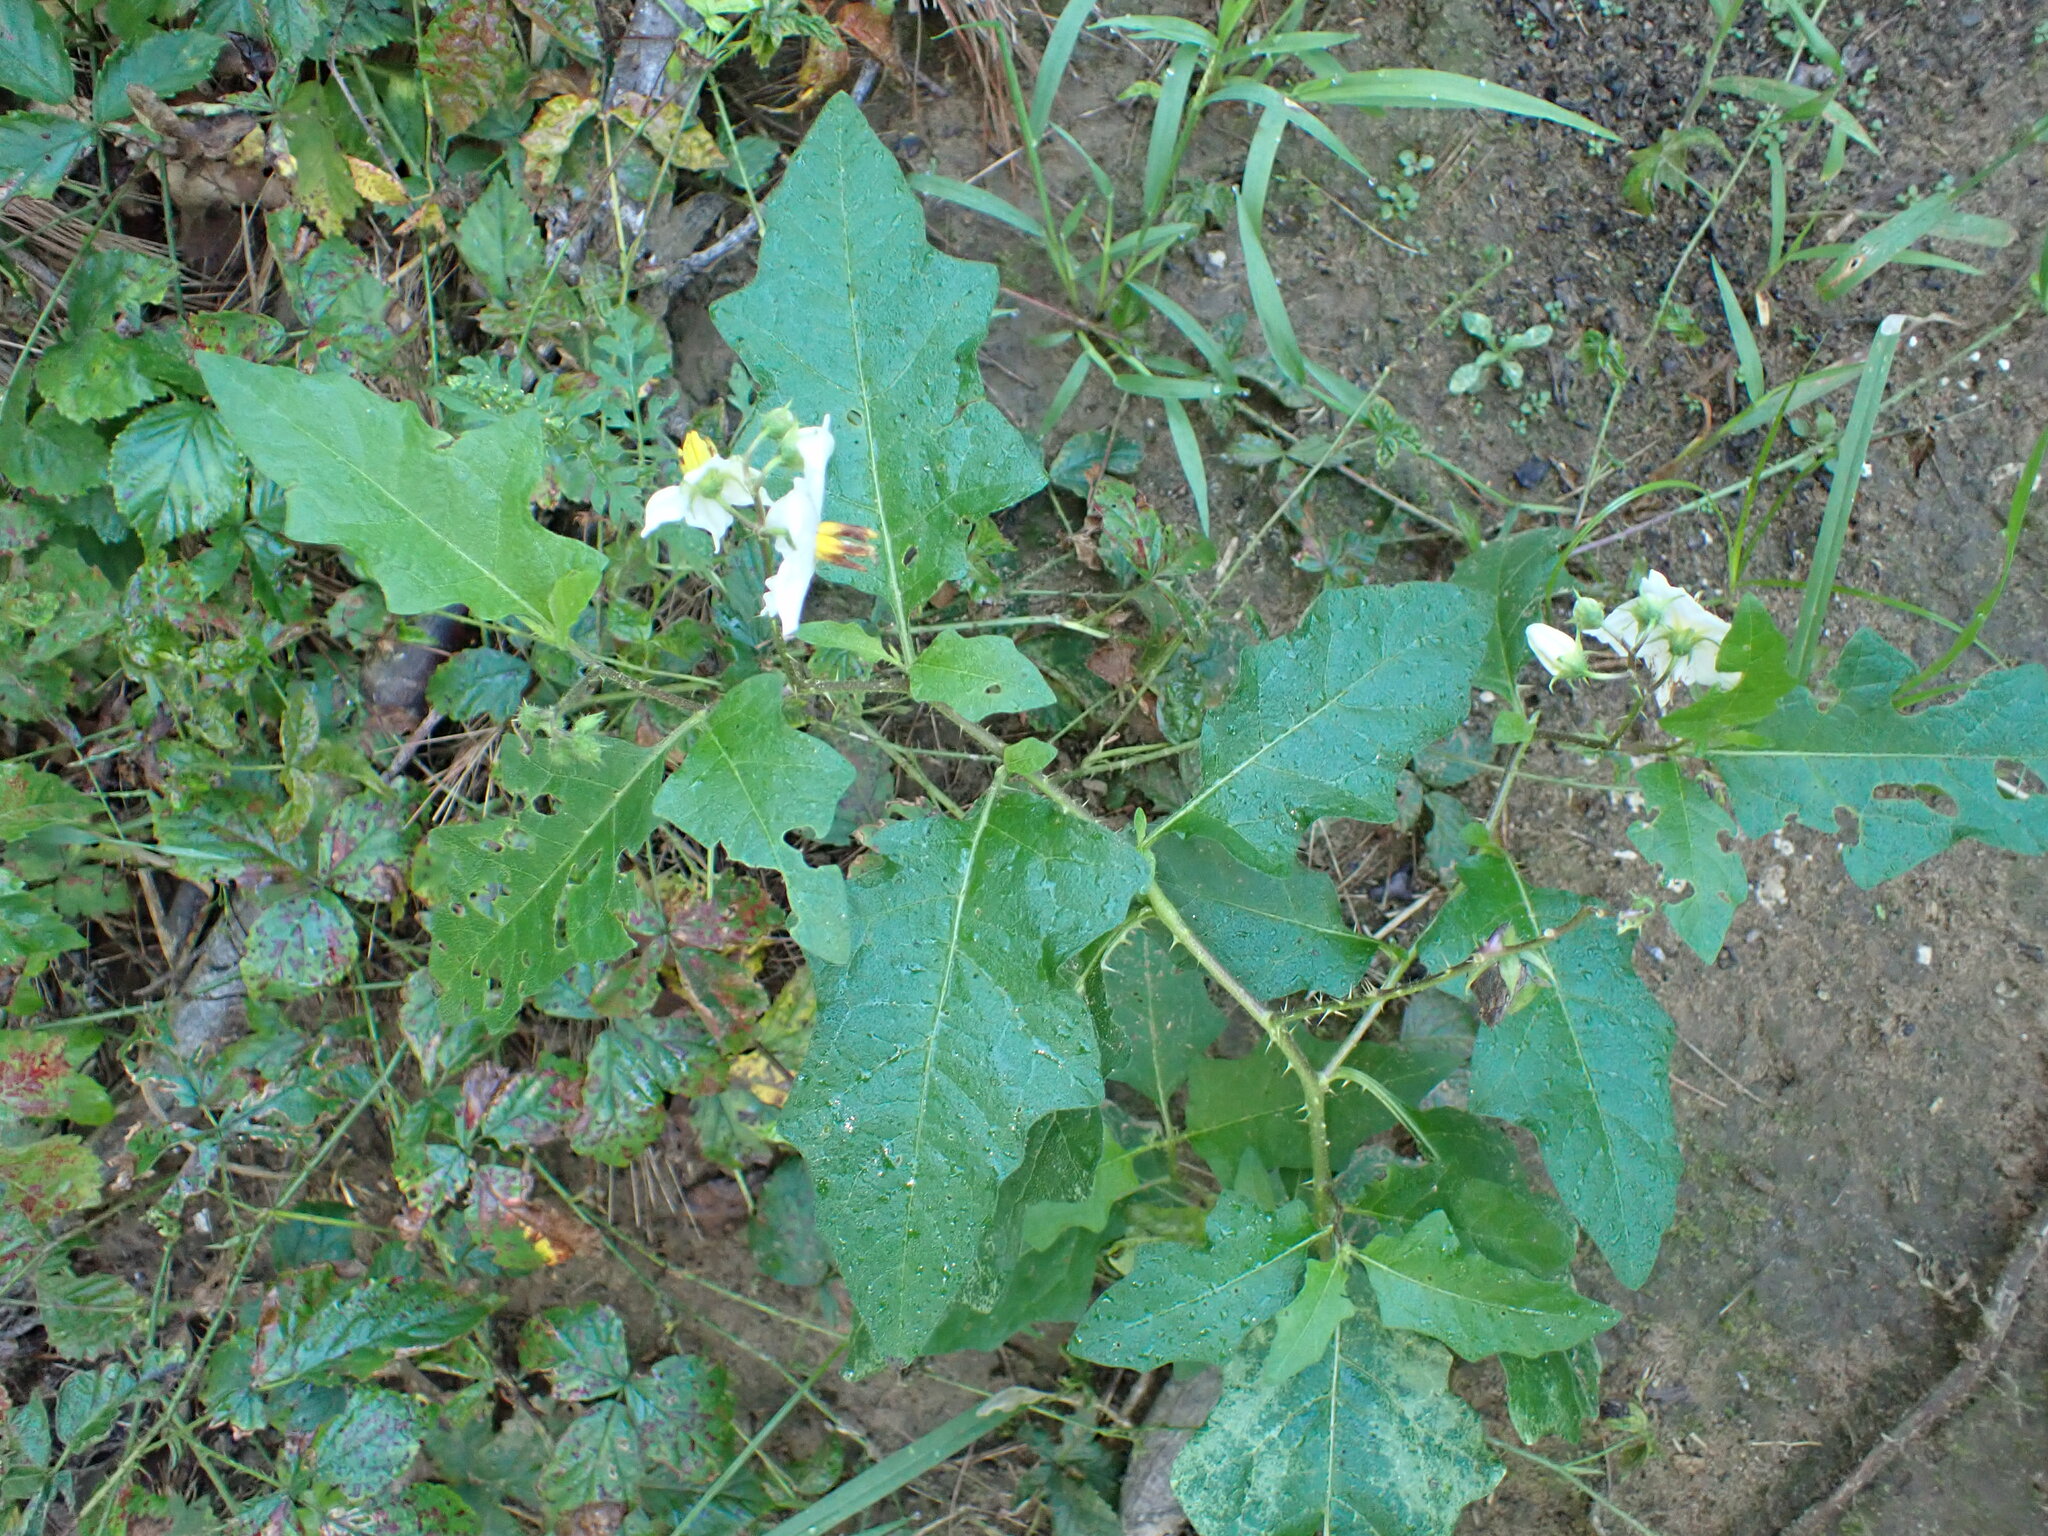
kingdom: Plantae
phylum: Tracheophyta
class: Magnoliopsida
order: Solanales
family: Solanaceae
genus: Solanum
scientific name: Solanum carolinense
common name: Horse-nettle
